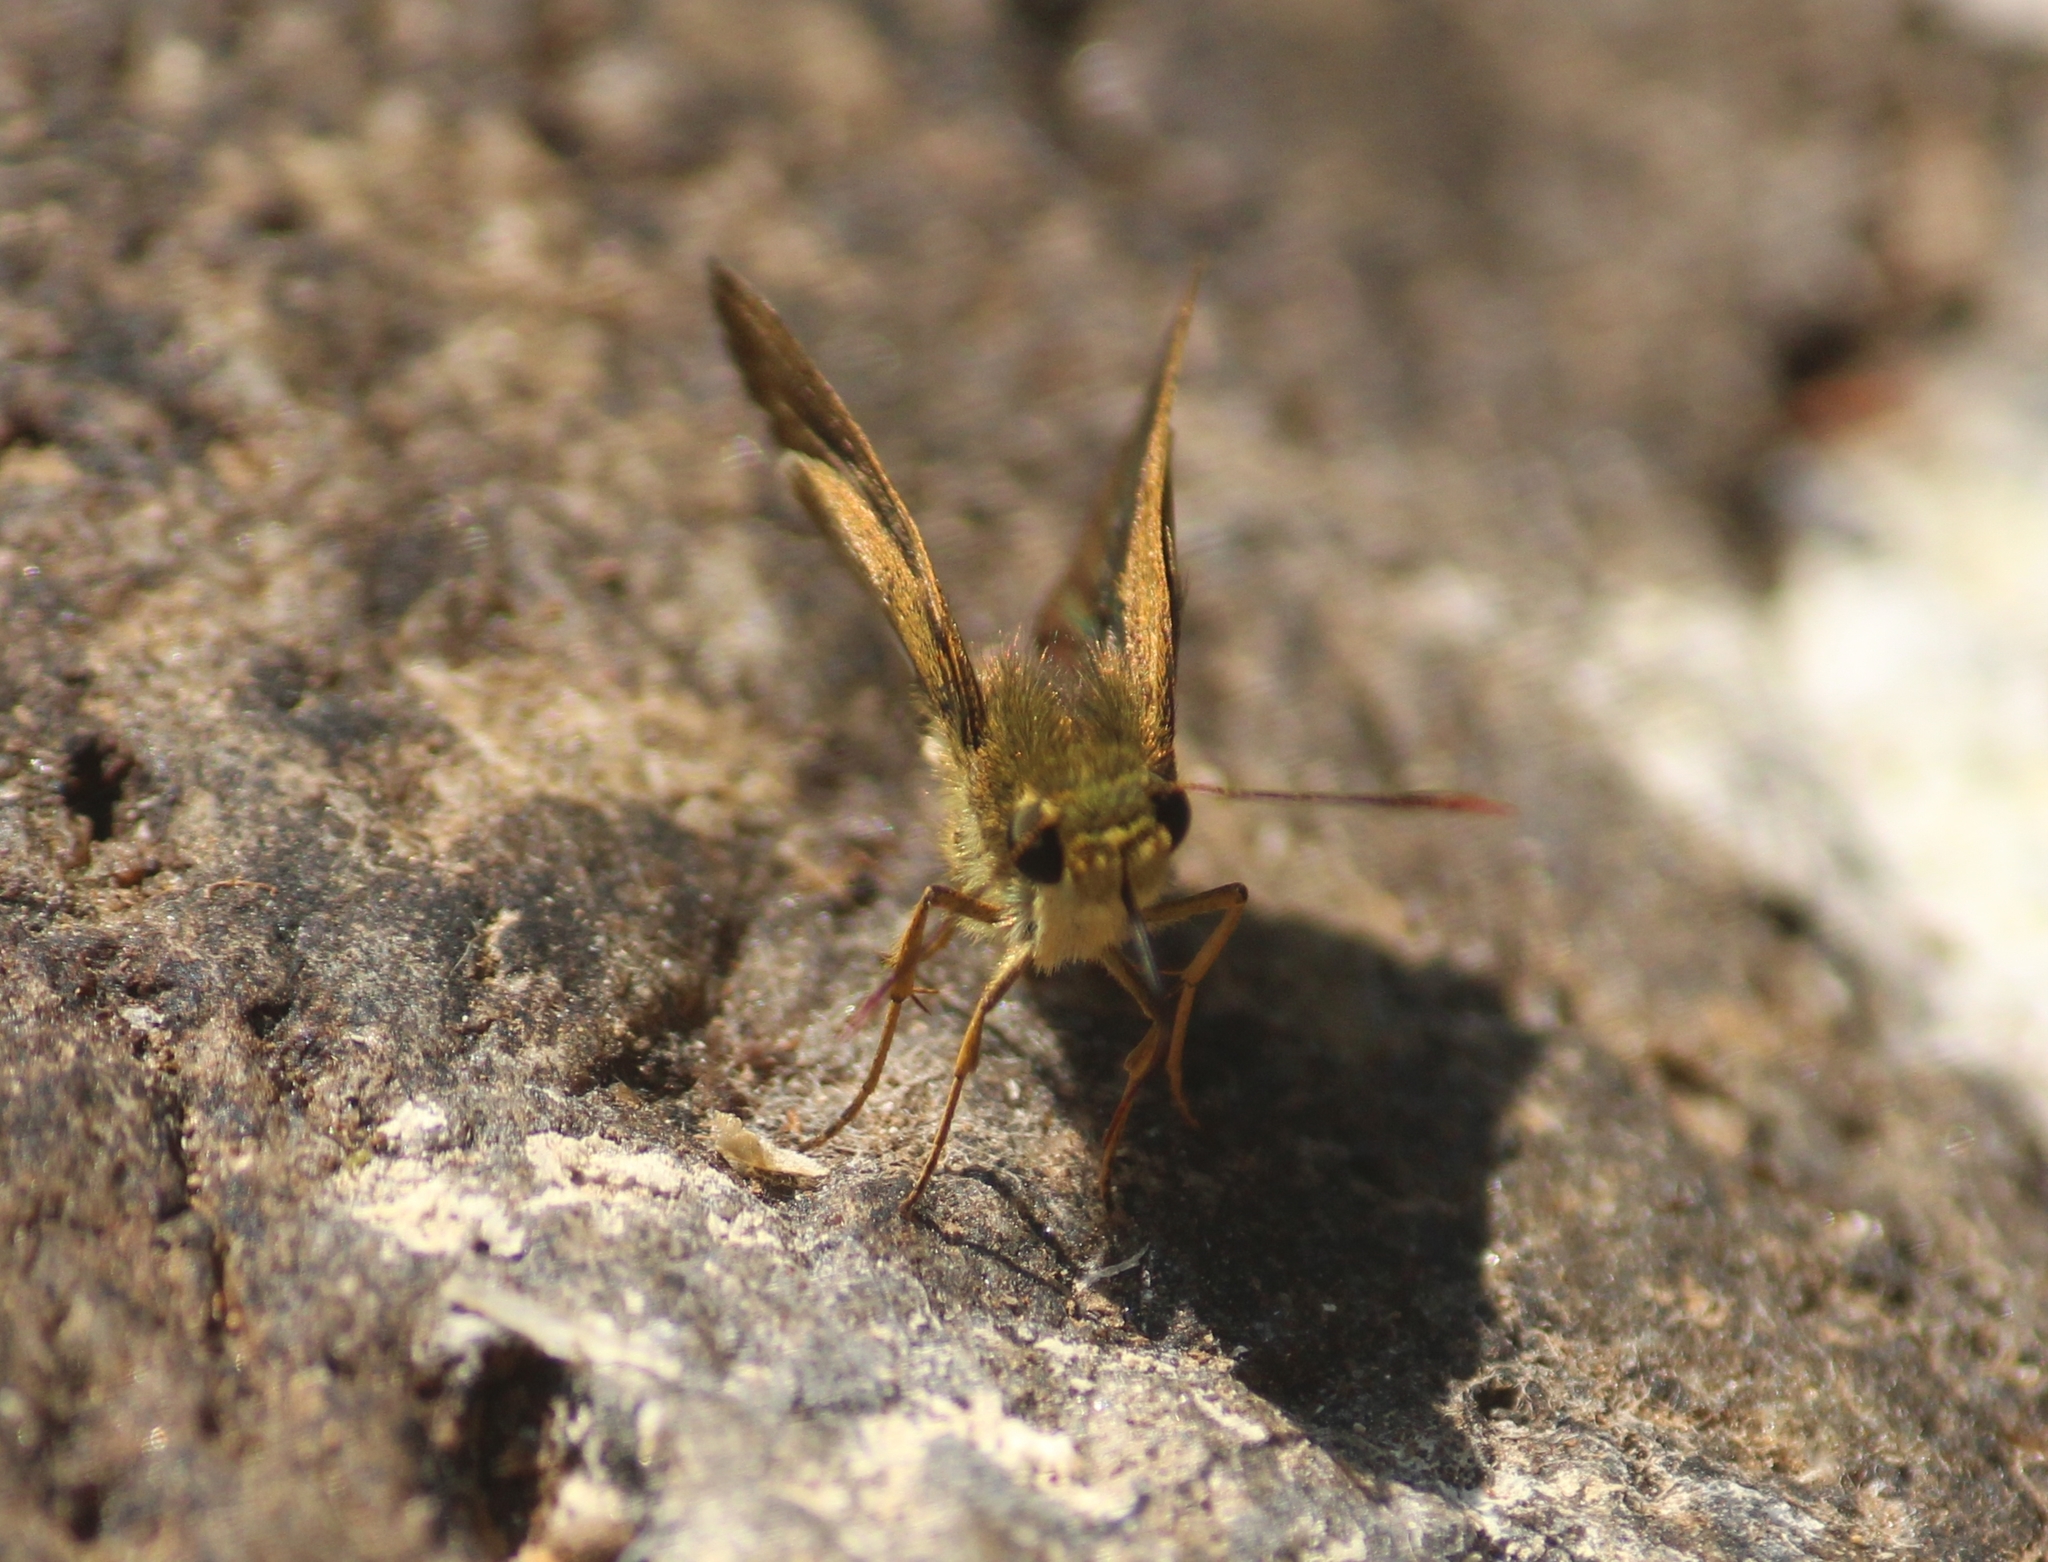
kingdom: Animalia
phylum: Arthropoda
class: Insecta
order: Lepidoptera
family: Hesperiidae
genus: Halpe
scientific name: Halpe porus
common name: Moore's ace
